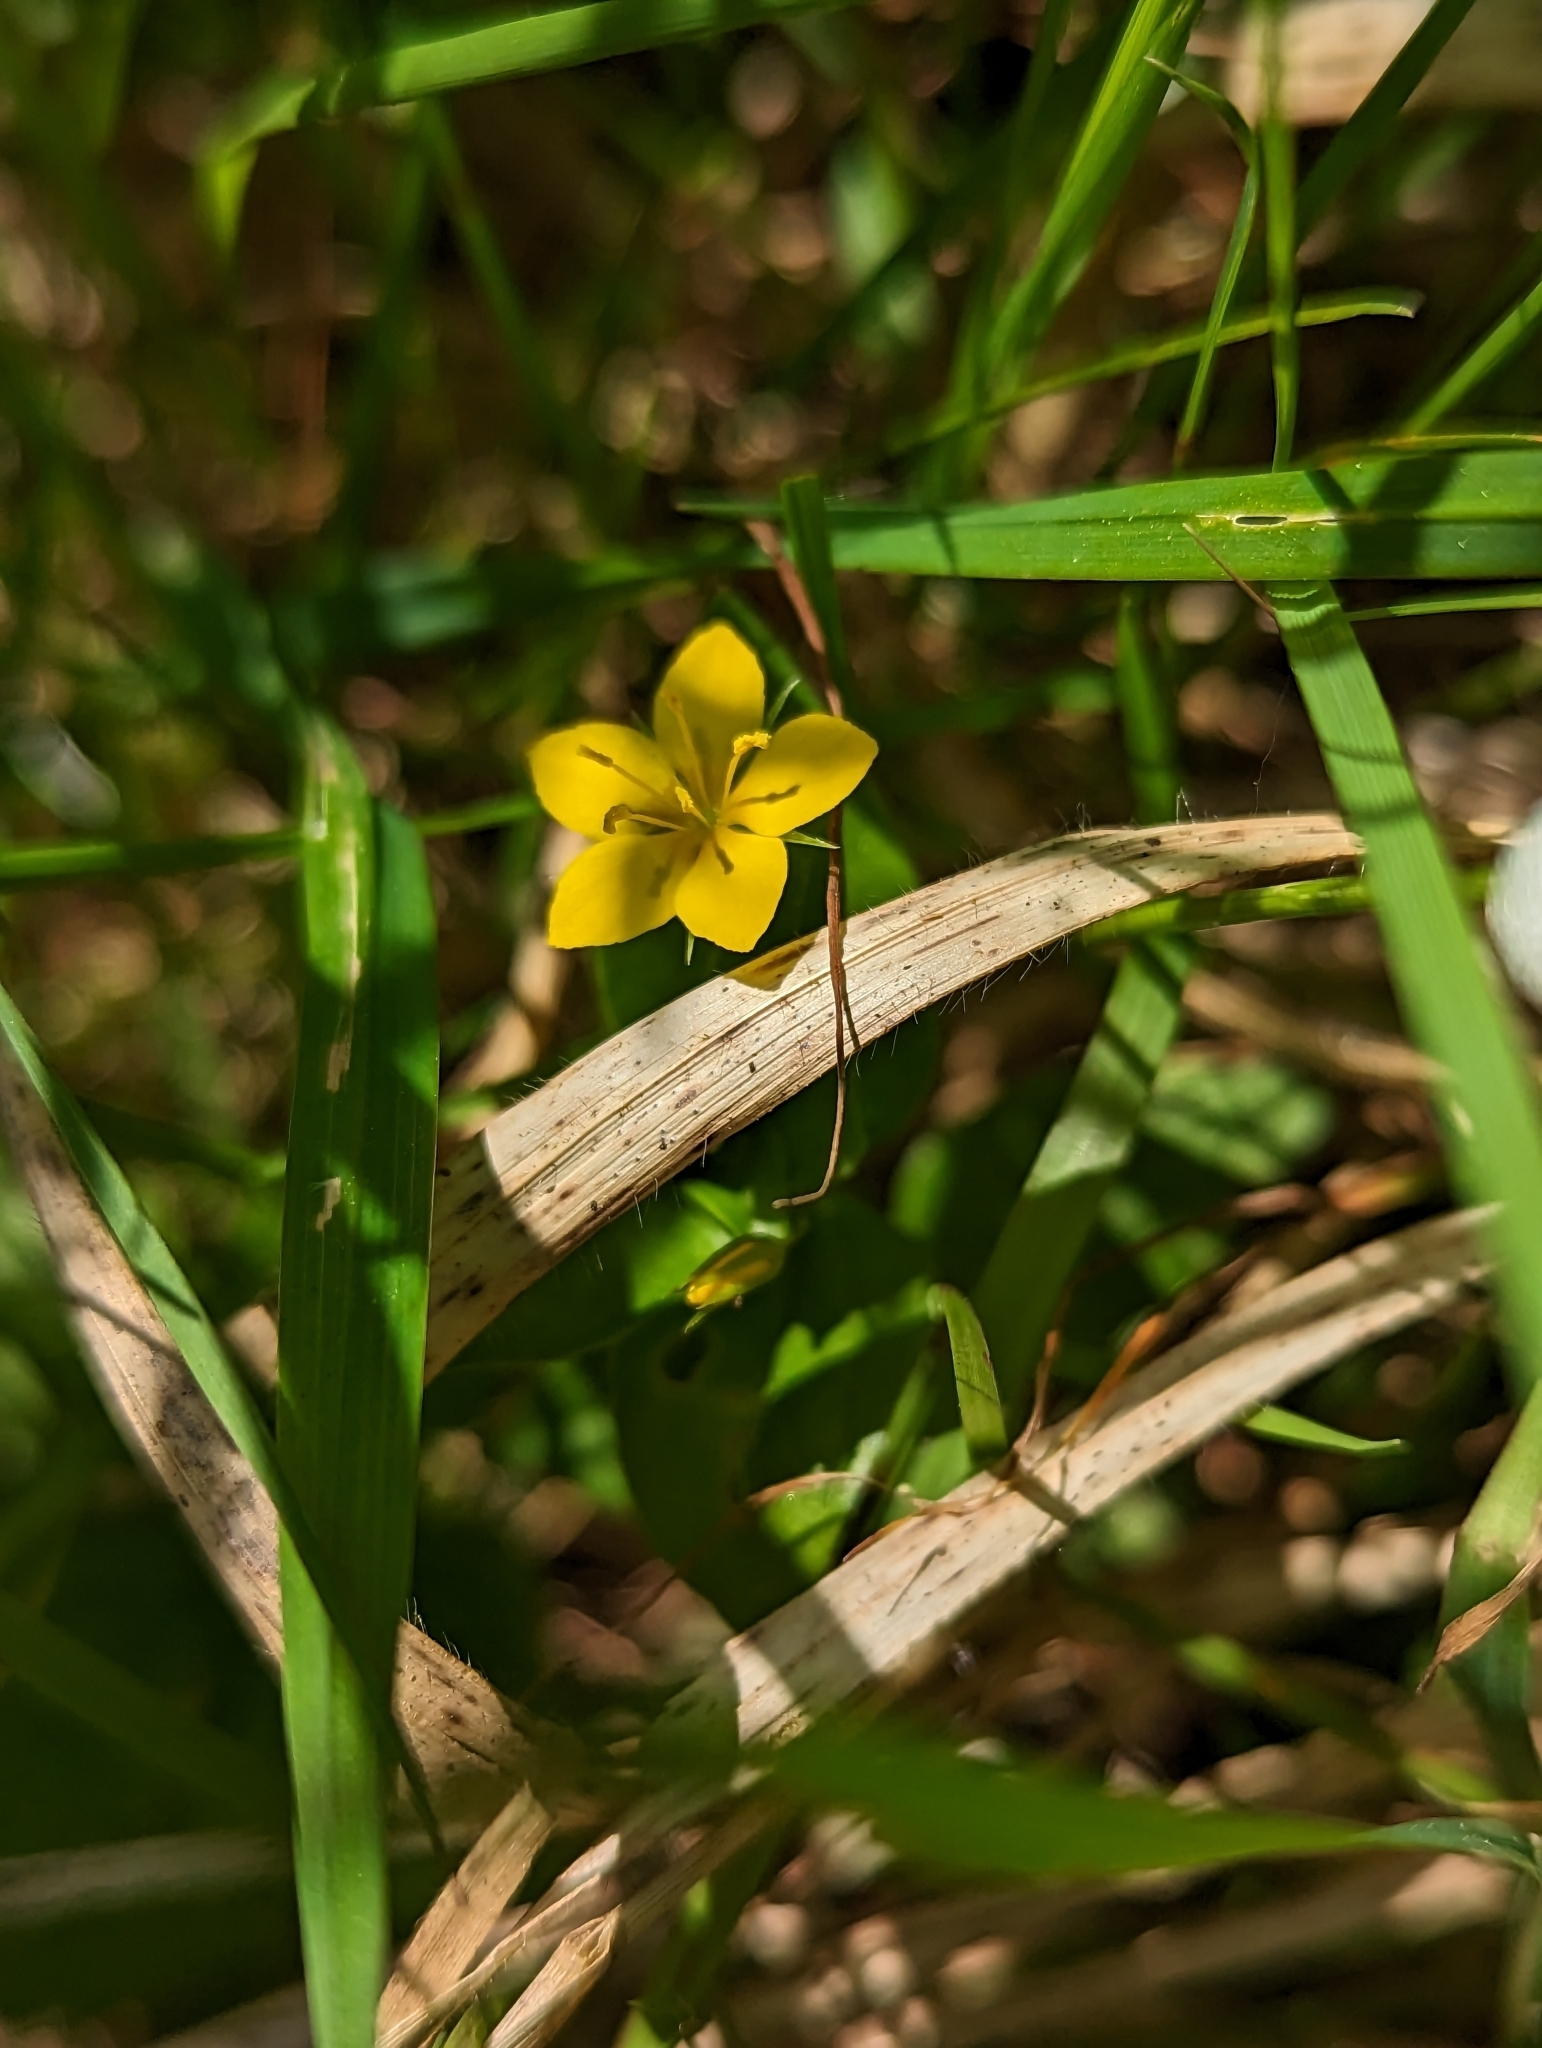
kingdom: Plantae
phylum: Tracheophyta
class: Magnoliopsida
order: Ericales
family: Primulaceae
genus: Lysimachia
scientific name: Lysimachia nemorum
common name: Yellow pimpernel
